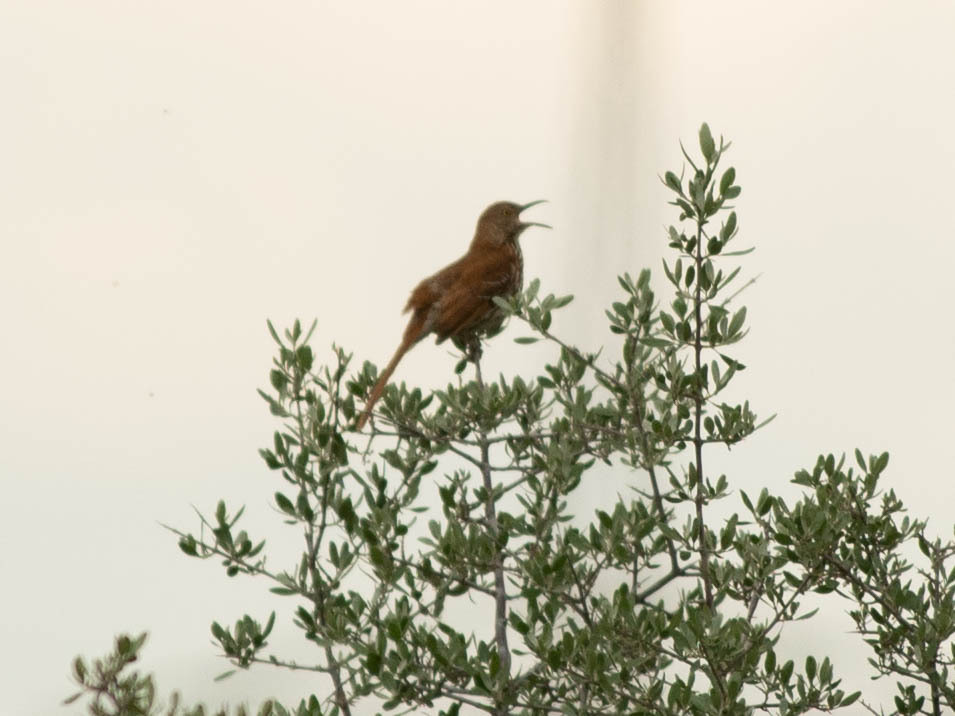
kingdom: Animalia
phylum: Chordata
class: Aves
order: Passeriformes
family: Mimidae
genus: Toxostoma
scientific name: Toxostoma rufum
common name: Brown thrasher
